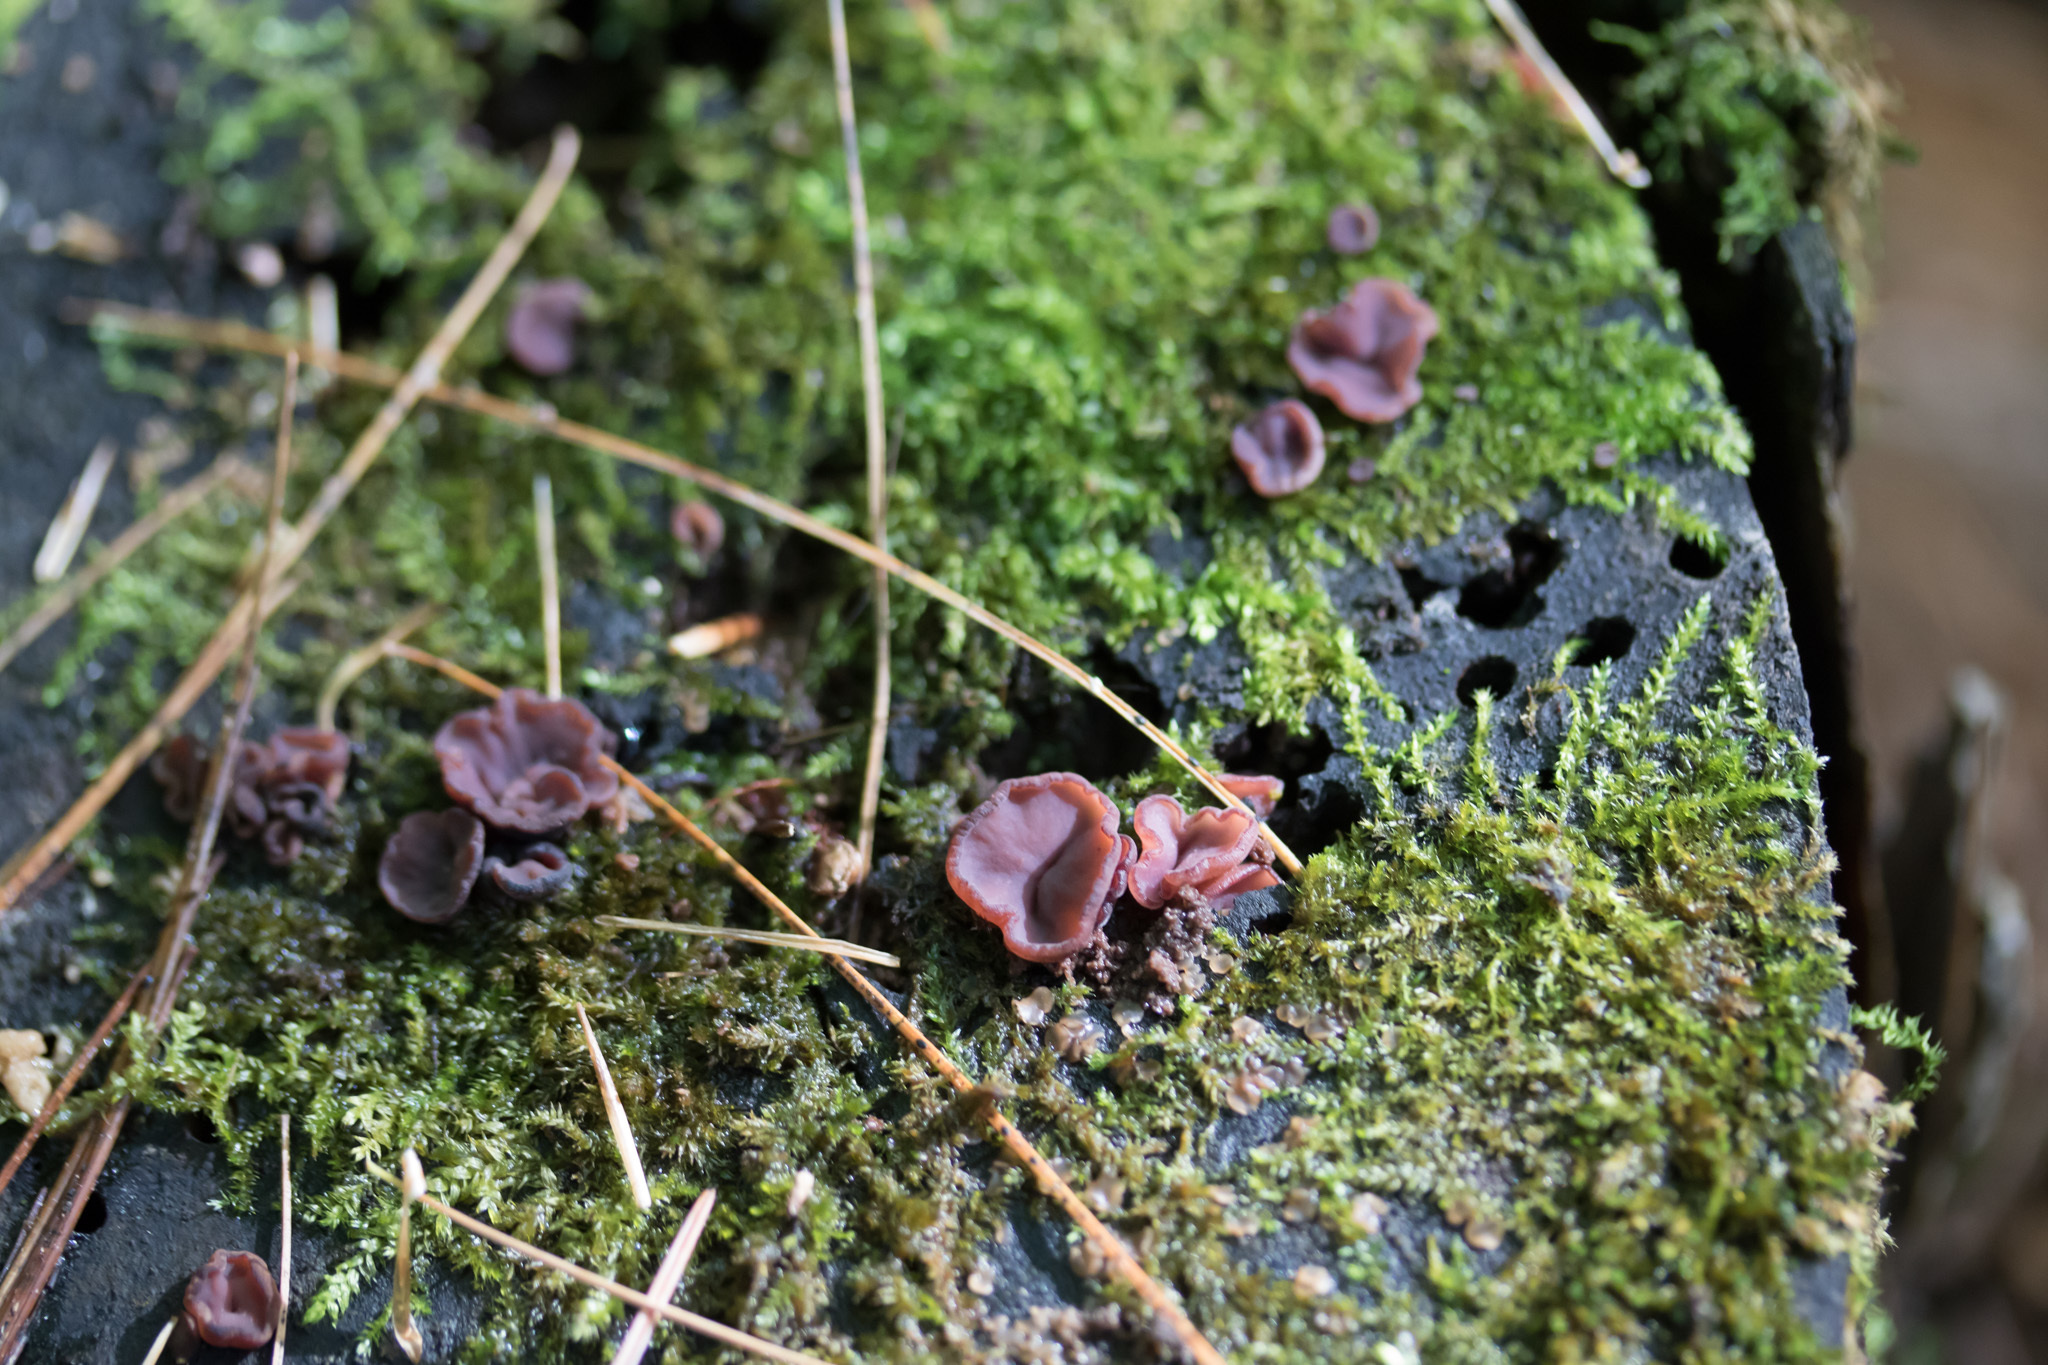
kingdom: Fungi
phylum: Ascomycota
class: Leotiomycetes
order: Helotiales
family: Gelatinodiscaceae
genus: Ascocoryne
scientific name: Ascocoryne cylichnium
